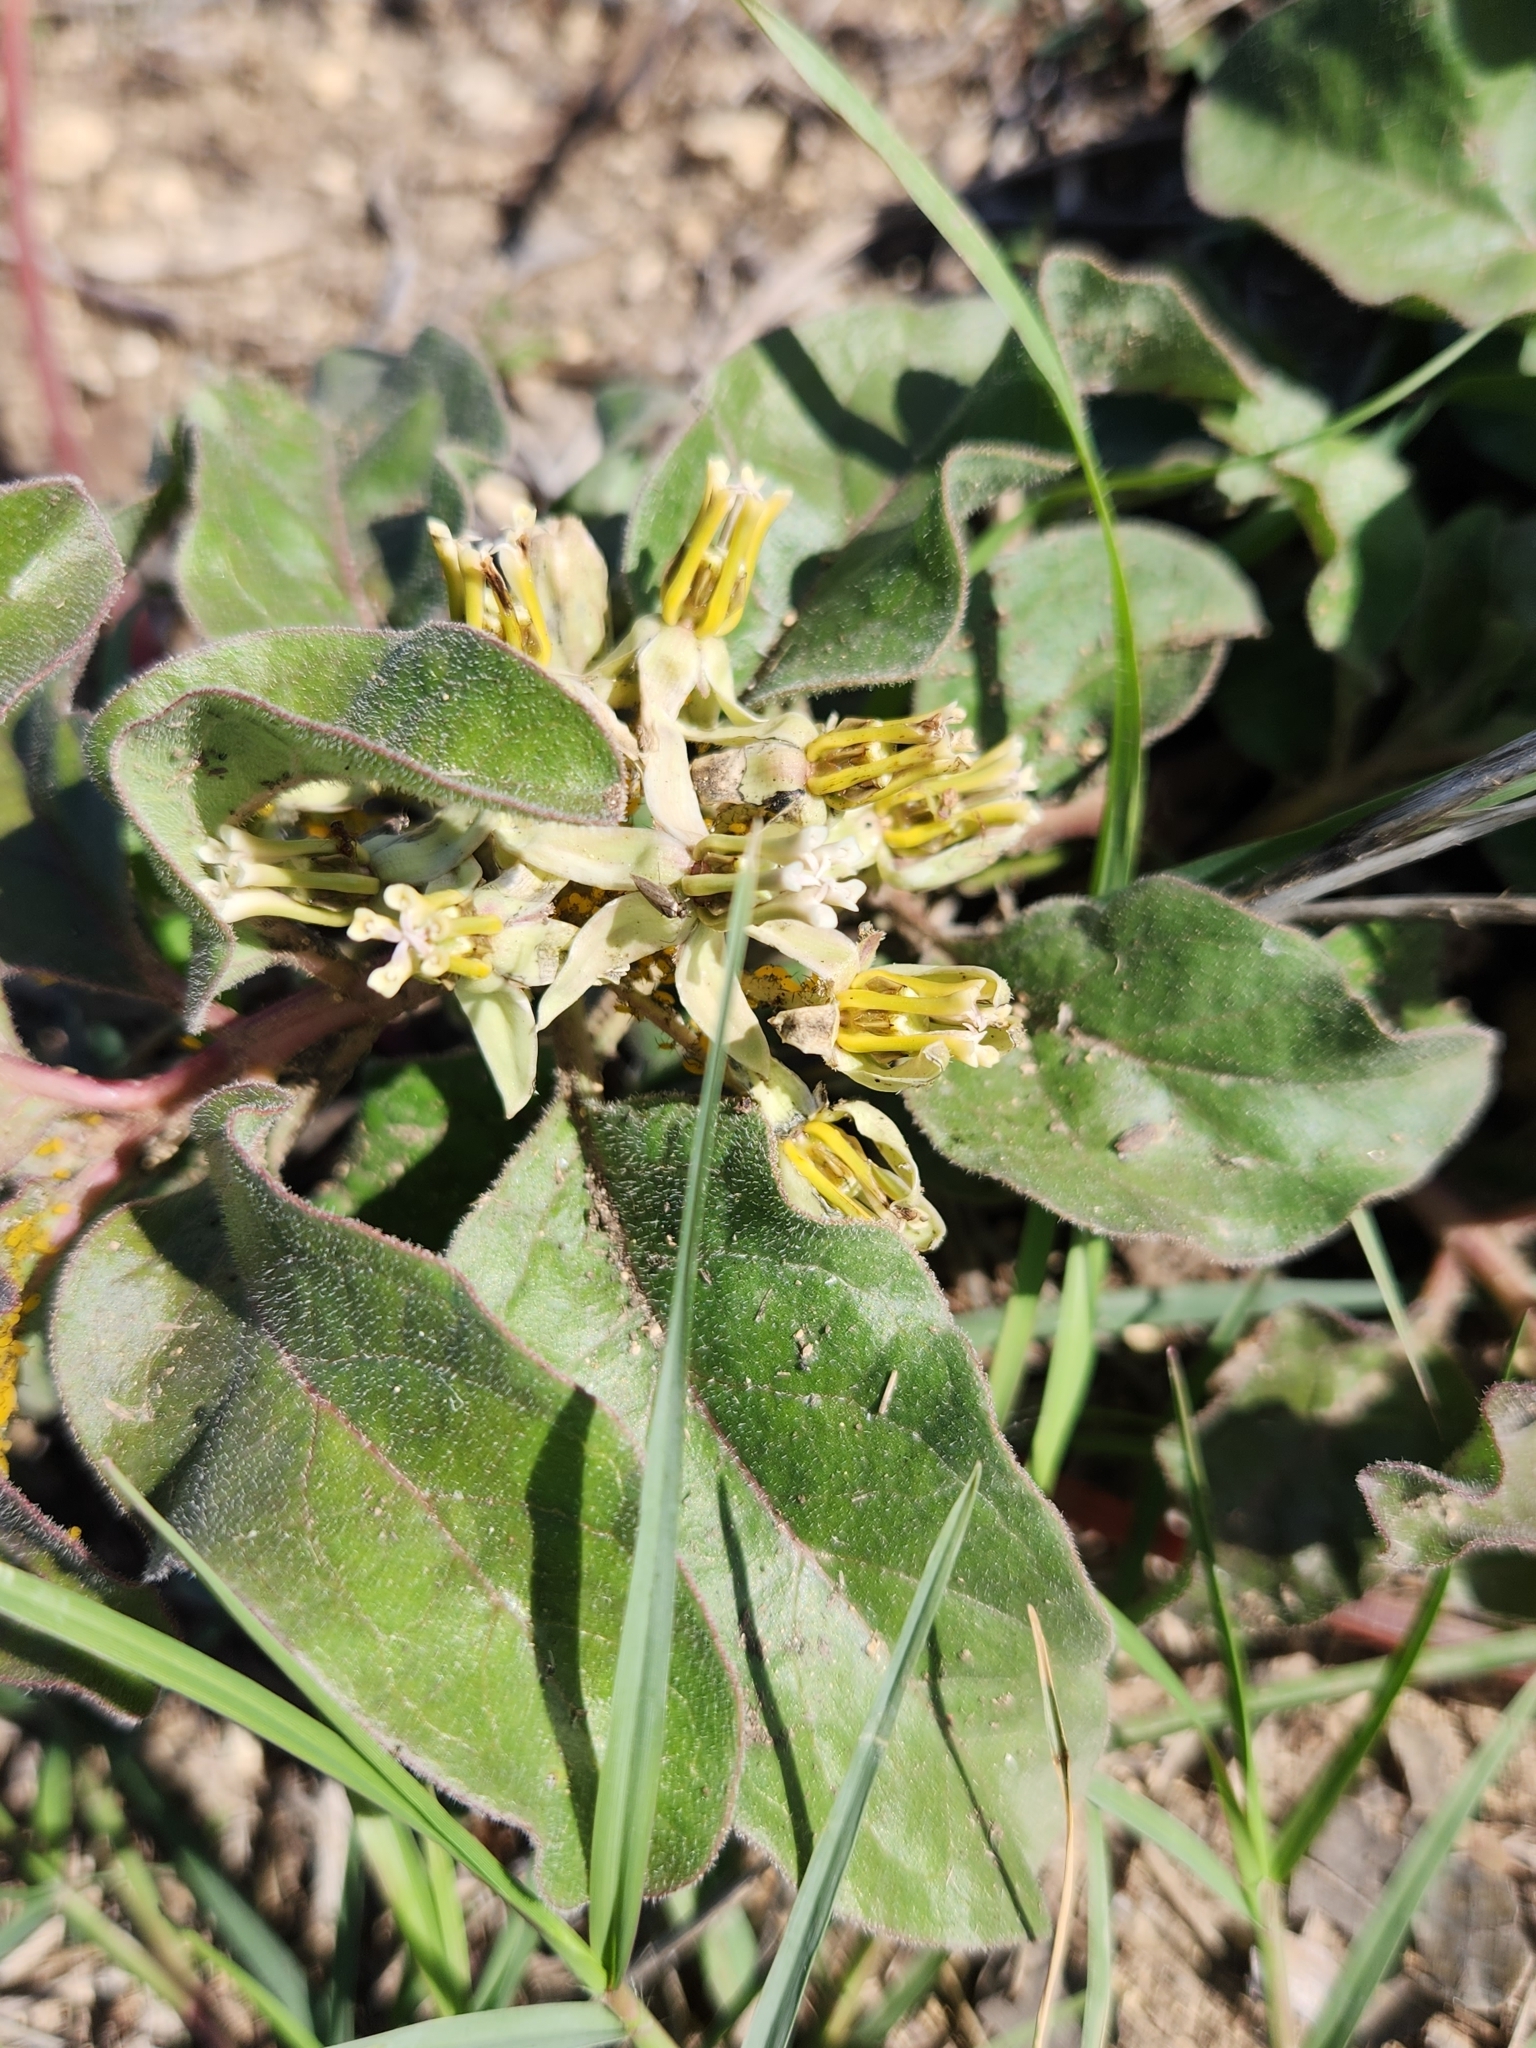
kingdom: Plantae
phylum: Tracheophyta
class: Magnoliopsida
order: Gentianales
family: Apocynaceae
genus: Asclepias
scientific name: Asclepias oenotheroides
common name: Zizotes milkweed
